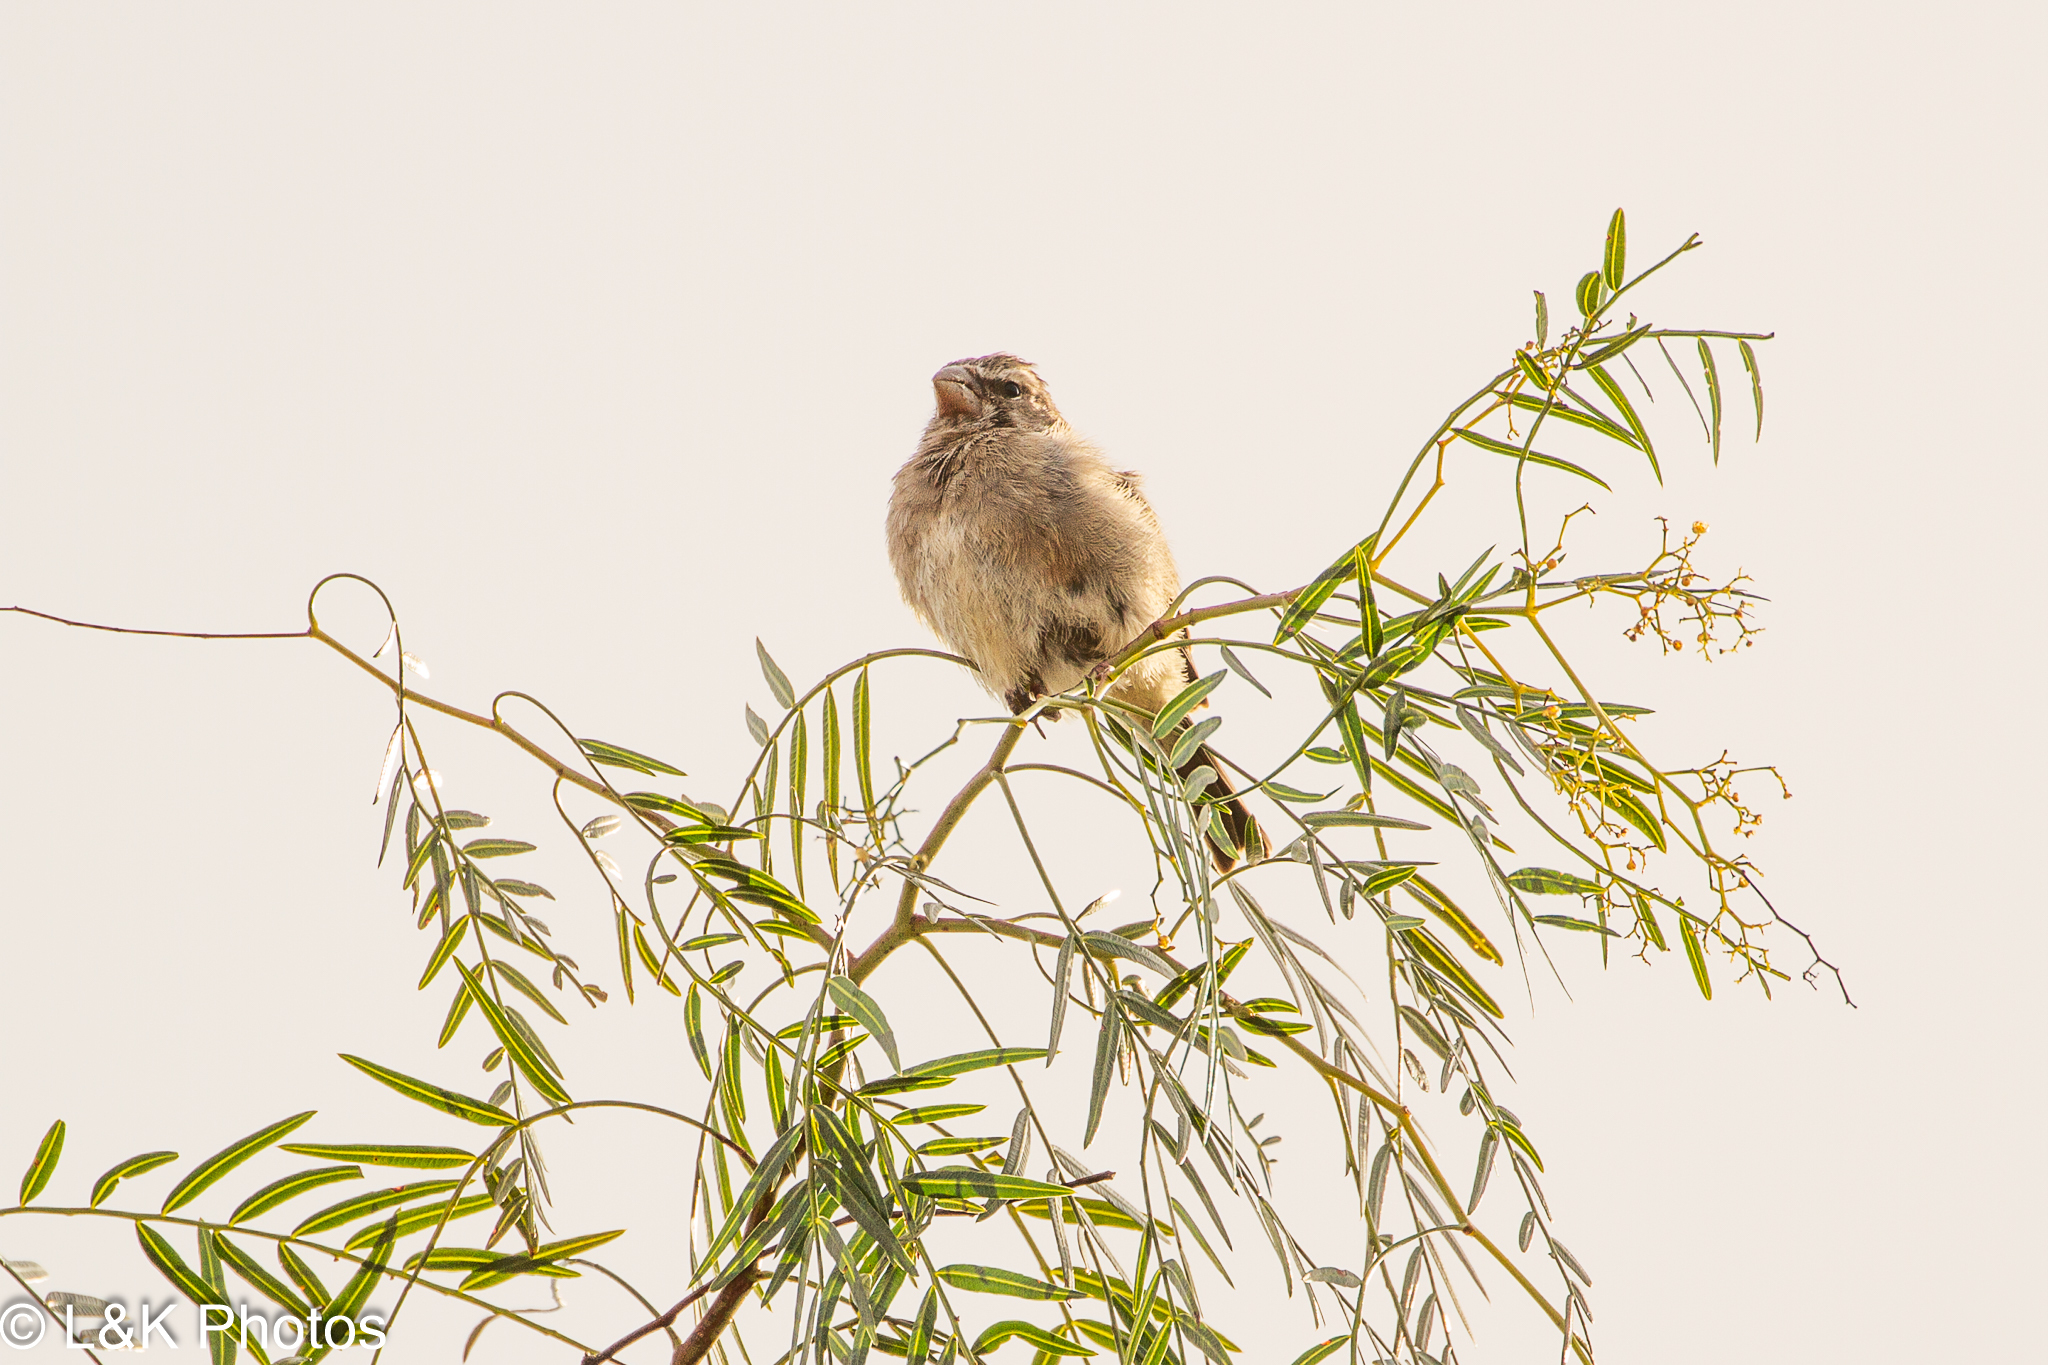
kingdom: Animalia
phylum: Chordata
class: Aves
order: Passeriformes
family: Fringillidae
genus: Crithagra
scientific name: Crithagra albogularis
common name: White-throated canary
